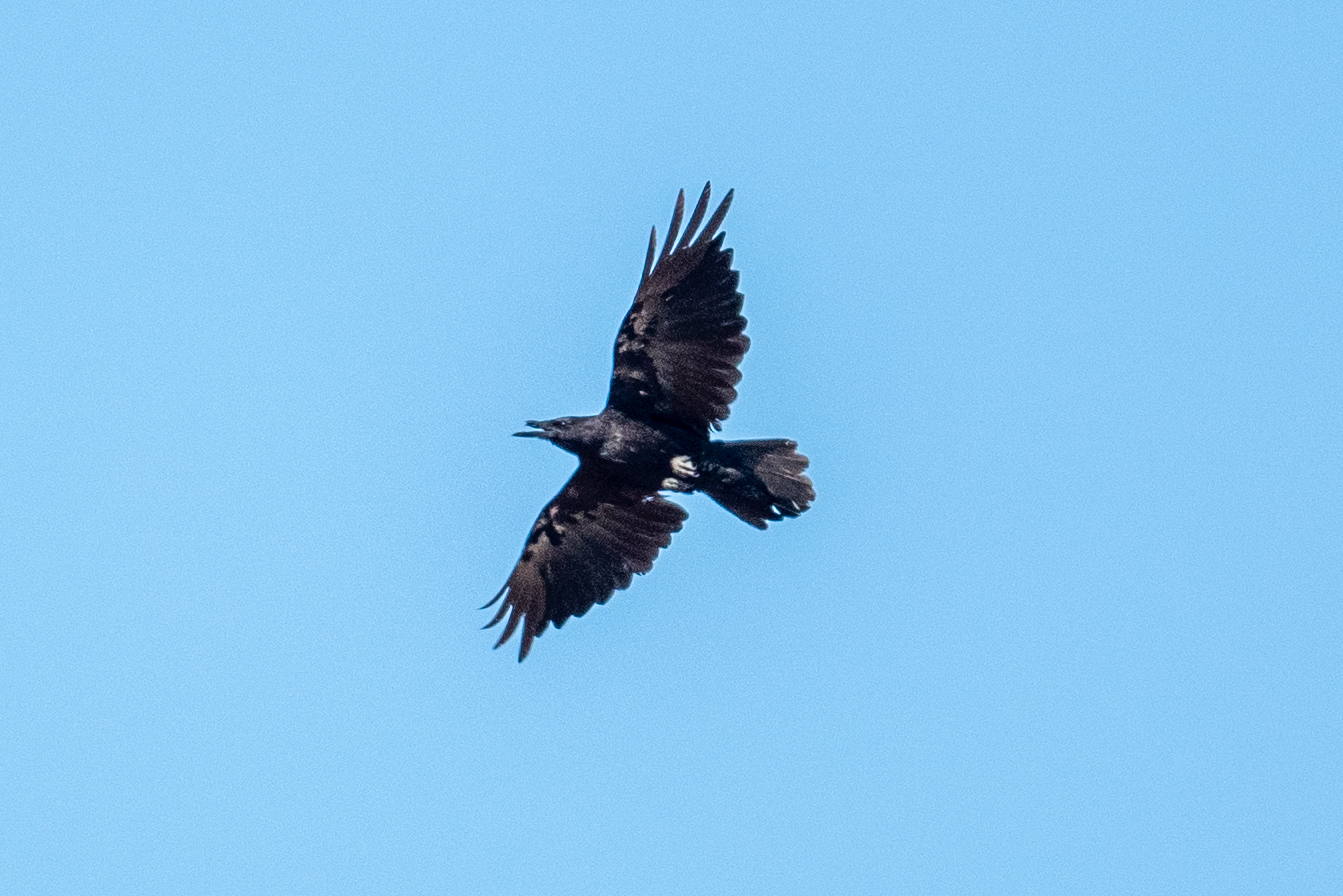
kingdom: Animalia
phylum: Chordata
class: Aves
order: Passeriformes
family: Corvidae
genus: Corvus
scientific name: Corvus corax
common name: Common raven
